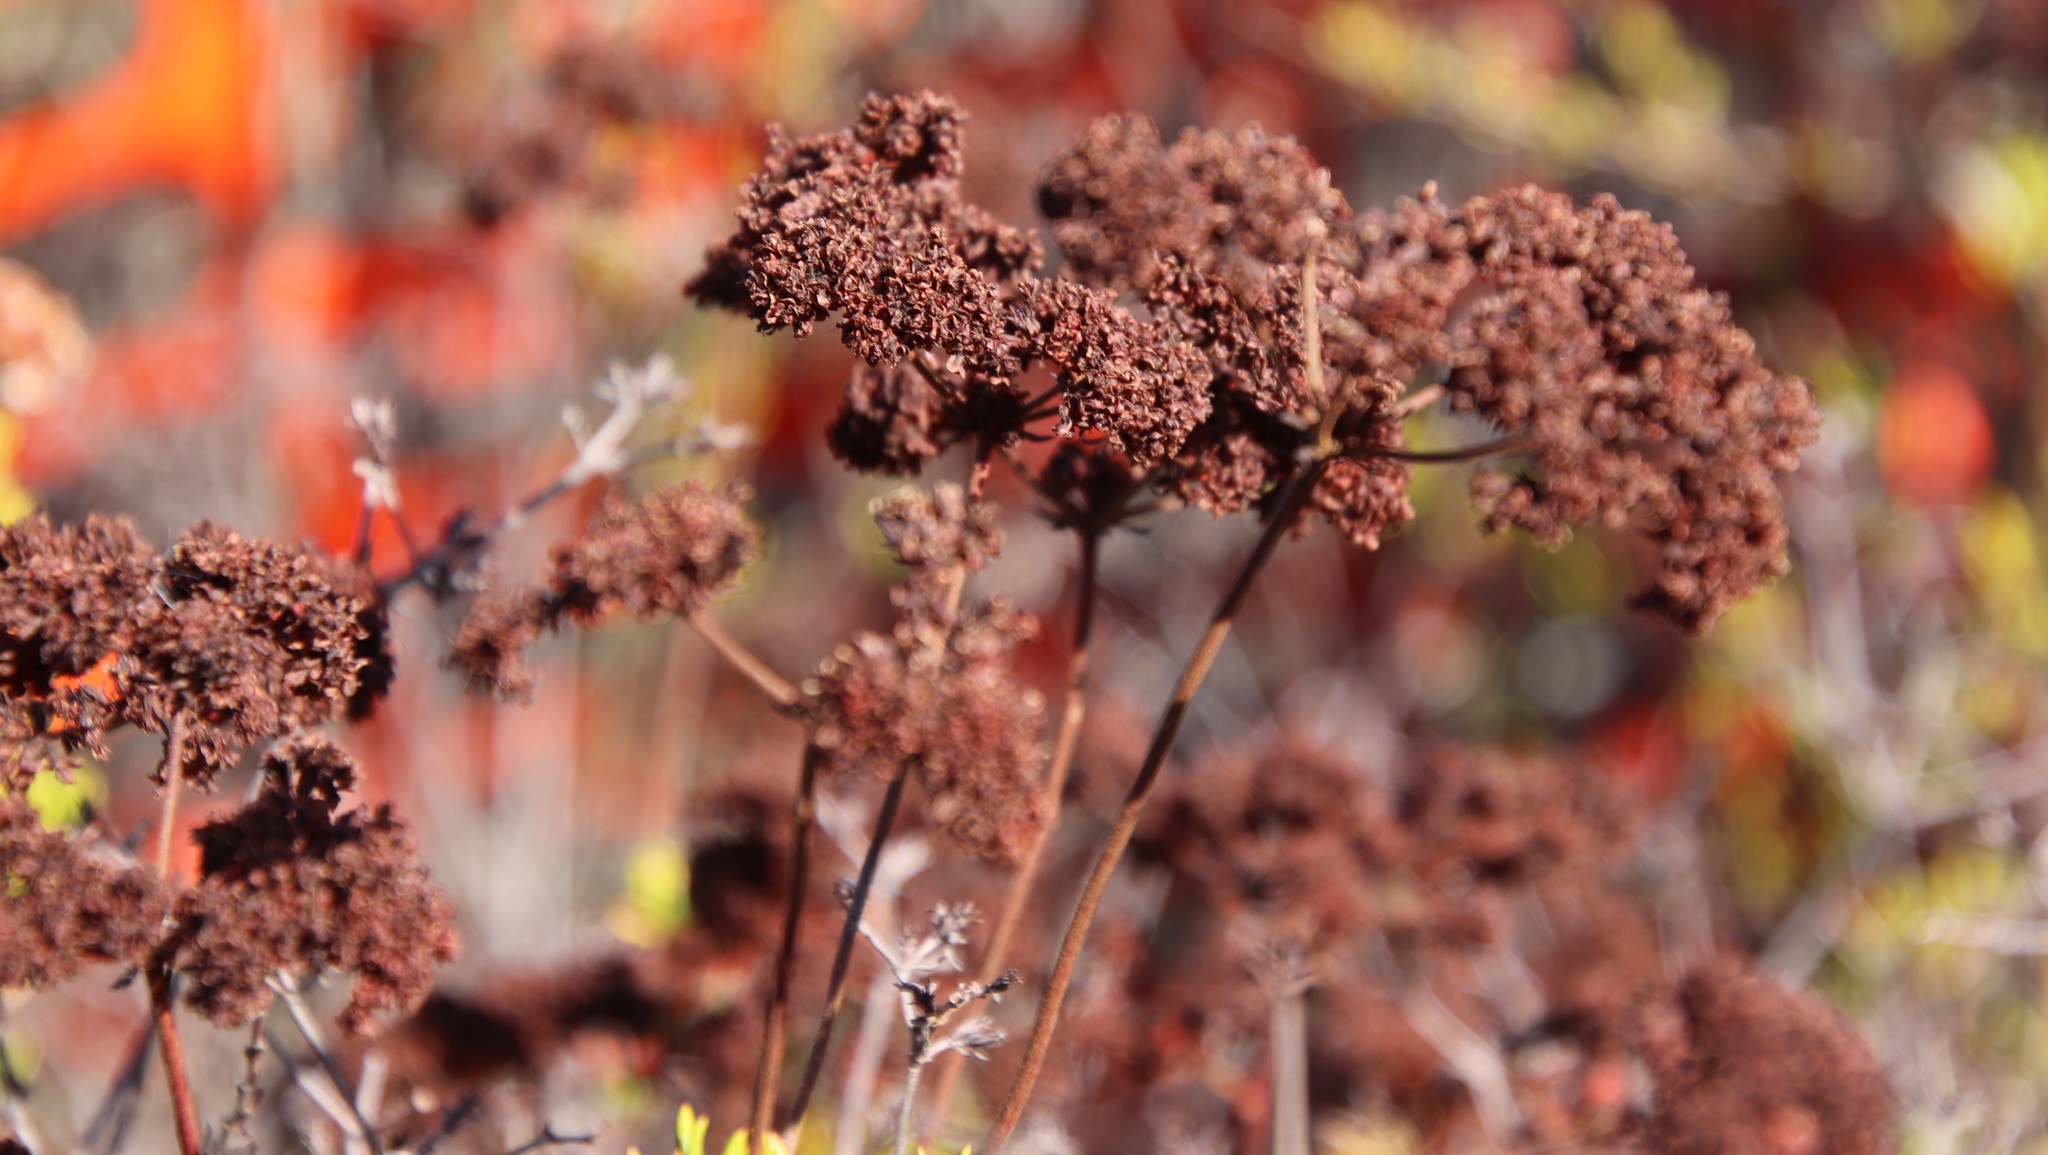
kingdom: Plantae
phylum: Tracheophyta
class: Magnoliopsida
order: Caryophyllales
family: Polygonaceae
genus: Eriogonum
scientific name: Eriogonum fasciculatum
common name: California wild buckwheat
